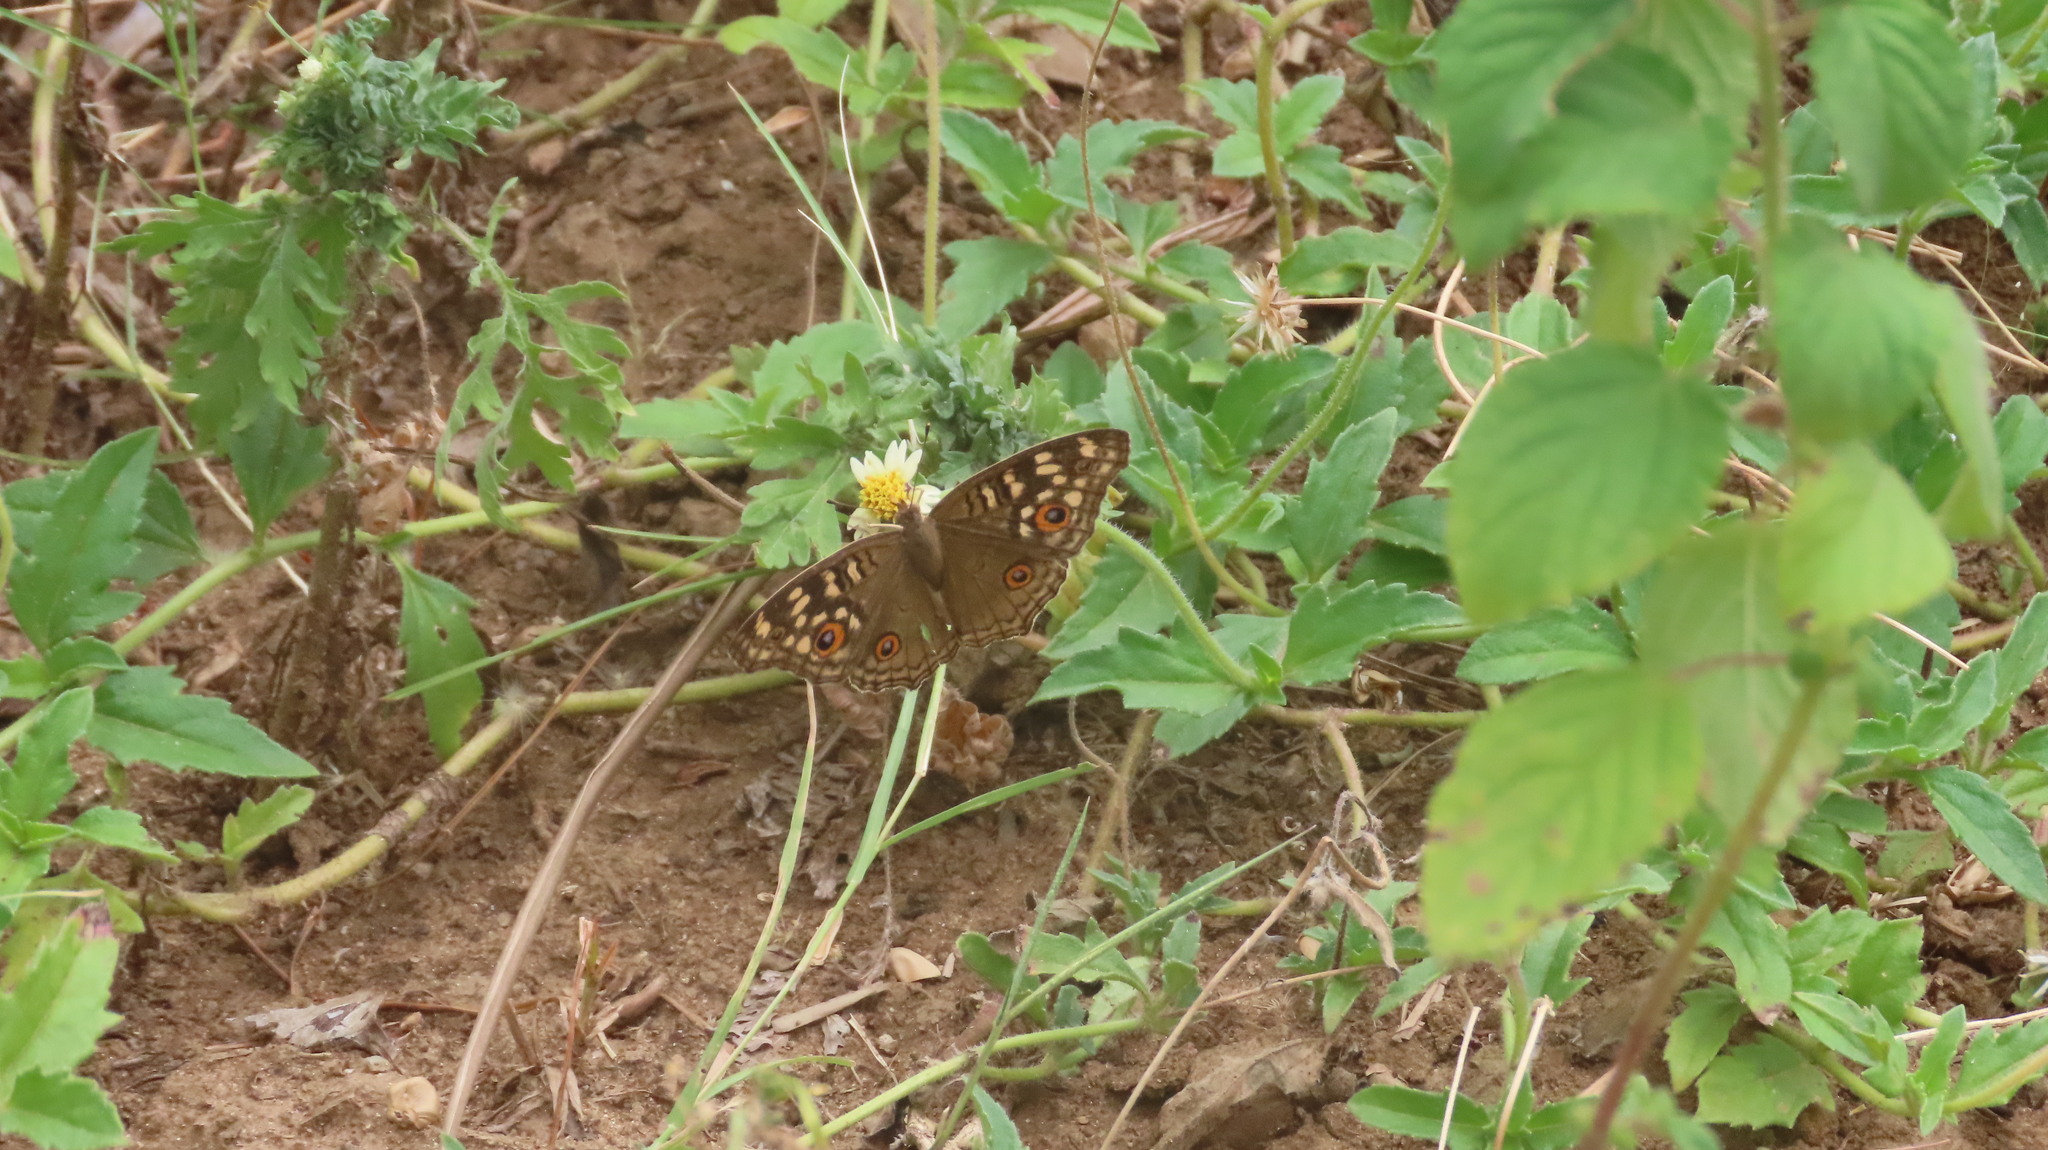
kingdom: Animalia
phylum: Arthropoda
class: Insecta
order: Lepidoptera
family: Nymphalidae
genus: Junonia
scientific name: Junonia lemonias
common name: Lemon pansy
